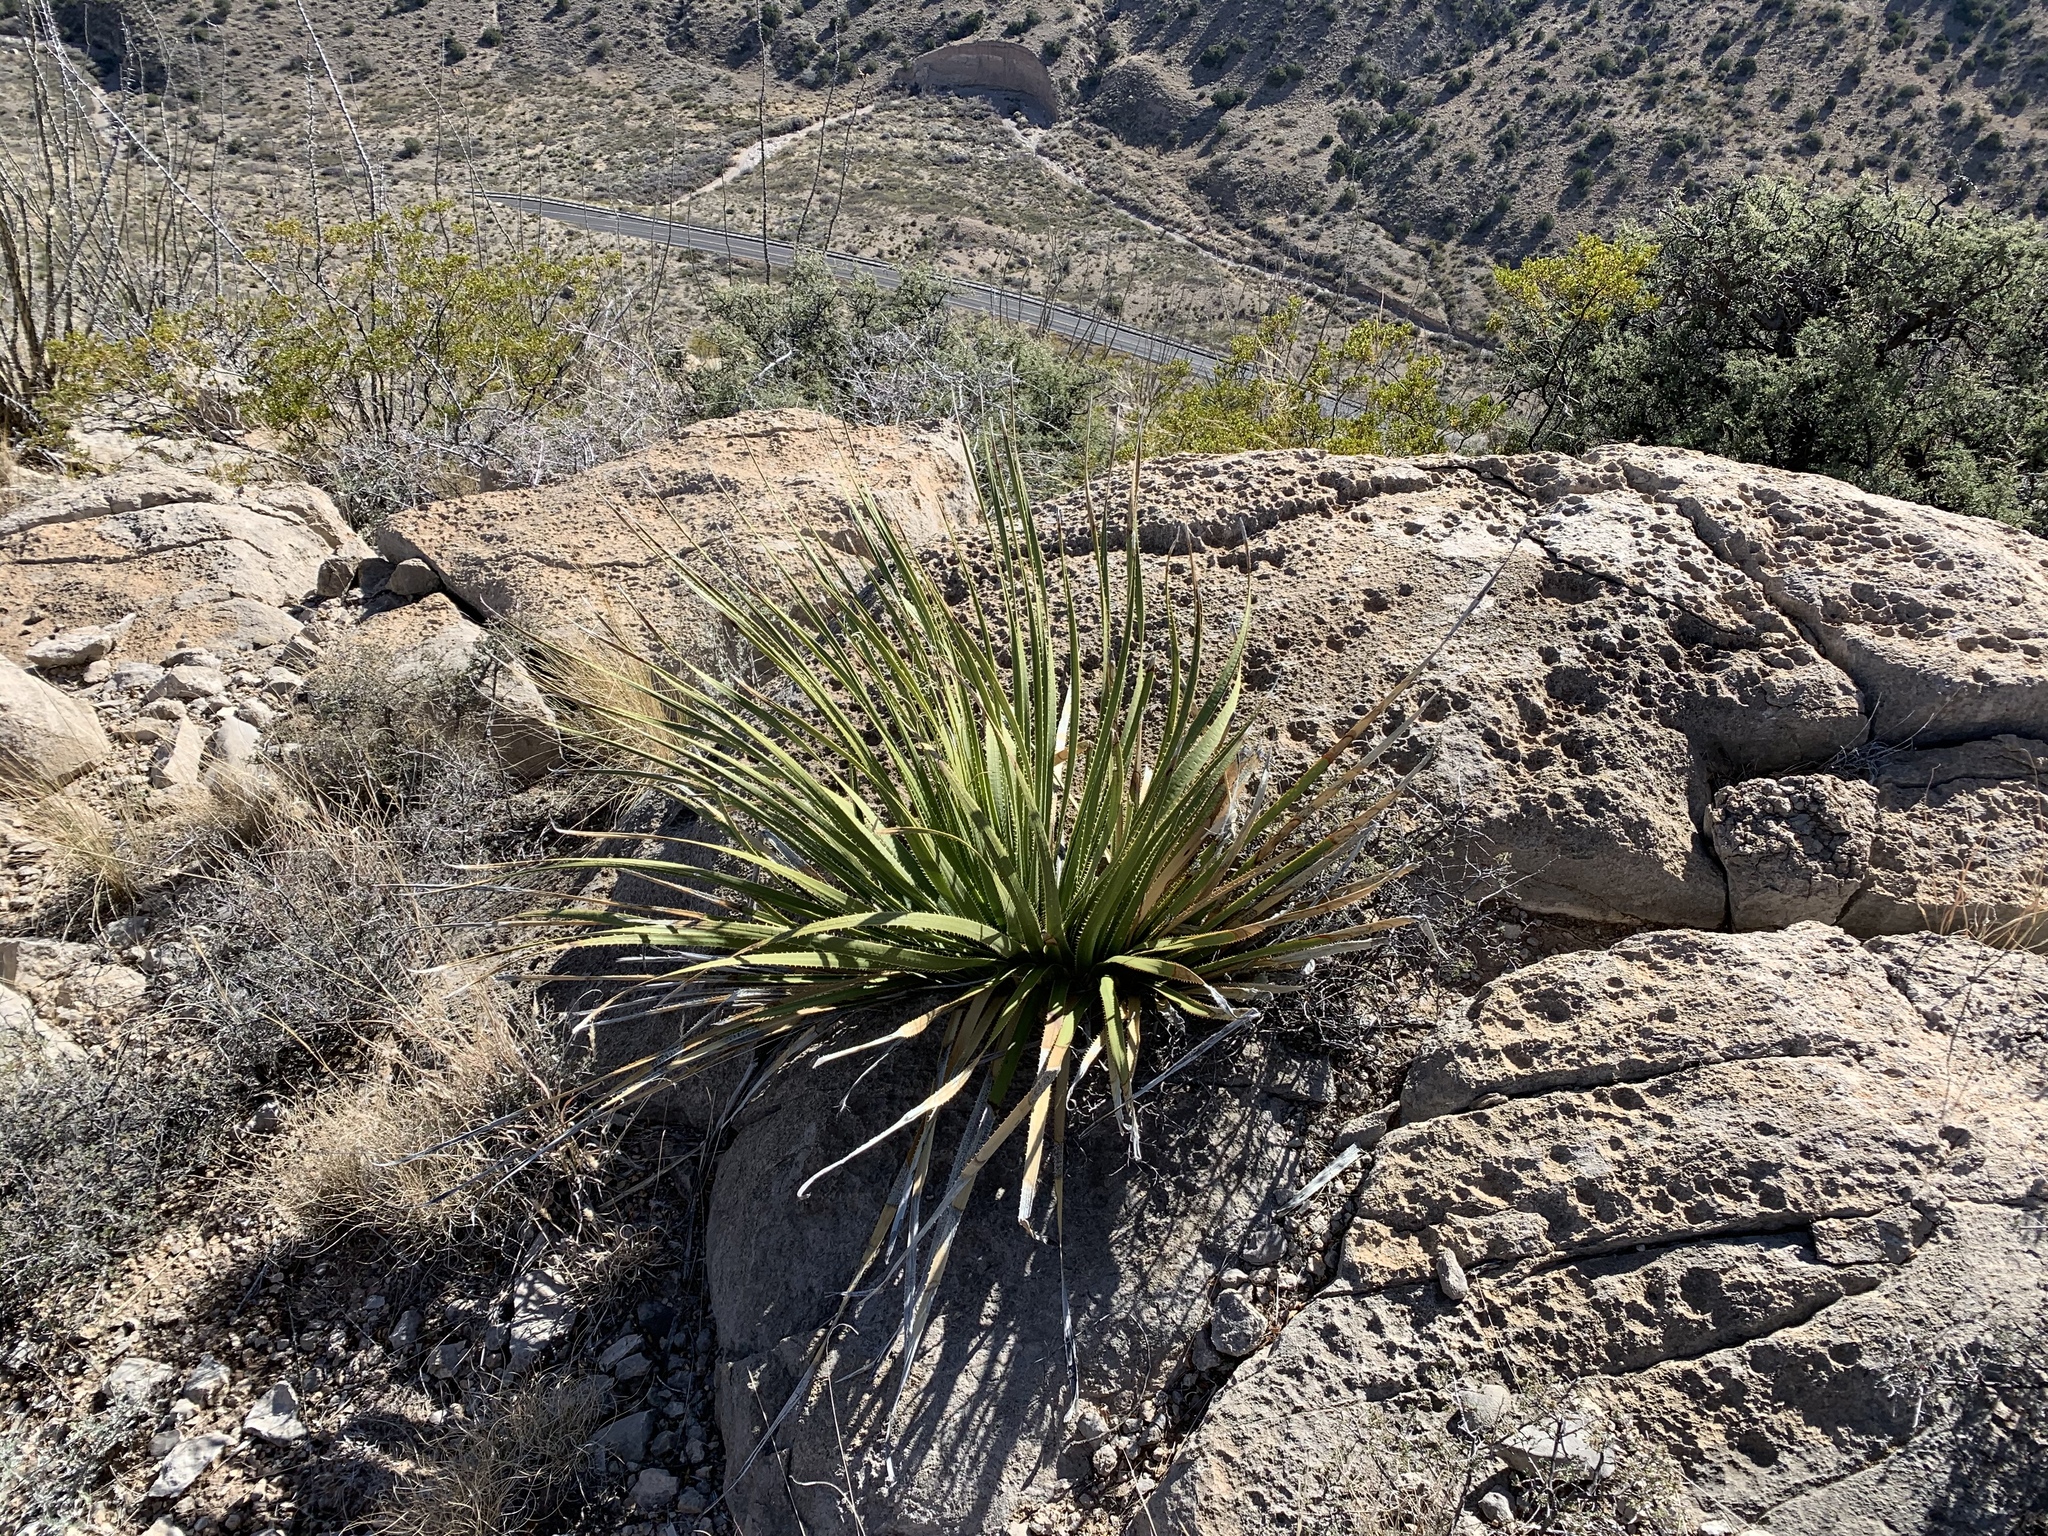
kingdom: Plantae
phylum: Tracheophyta
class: Liliopsida
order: Asparagales
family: Asparagaceae
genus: Dasylirion
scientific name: Dasylirion wheeleri
